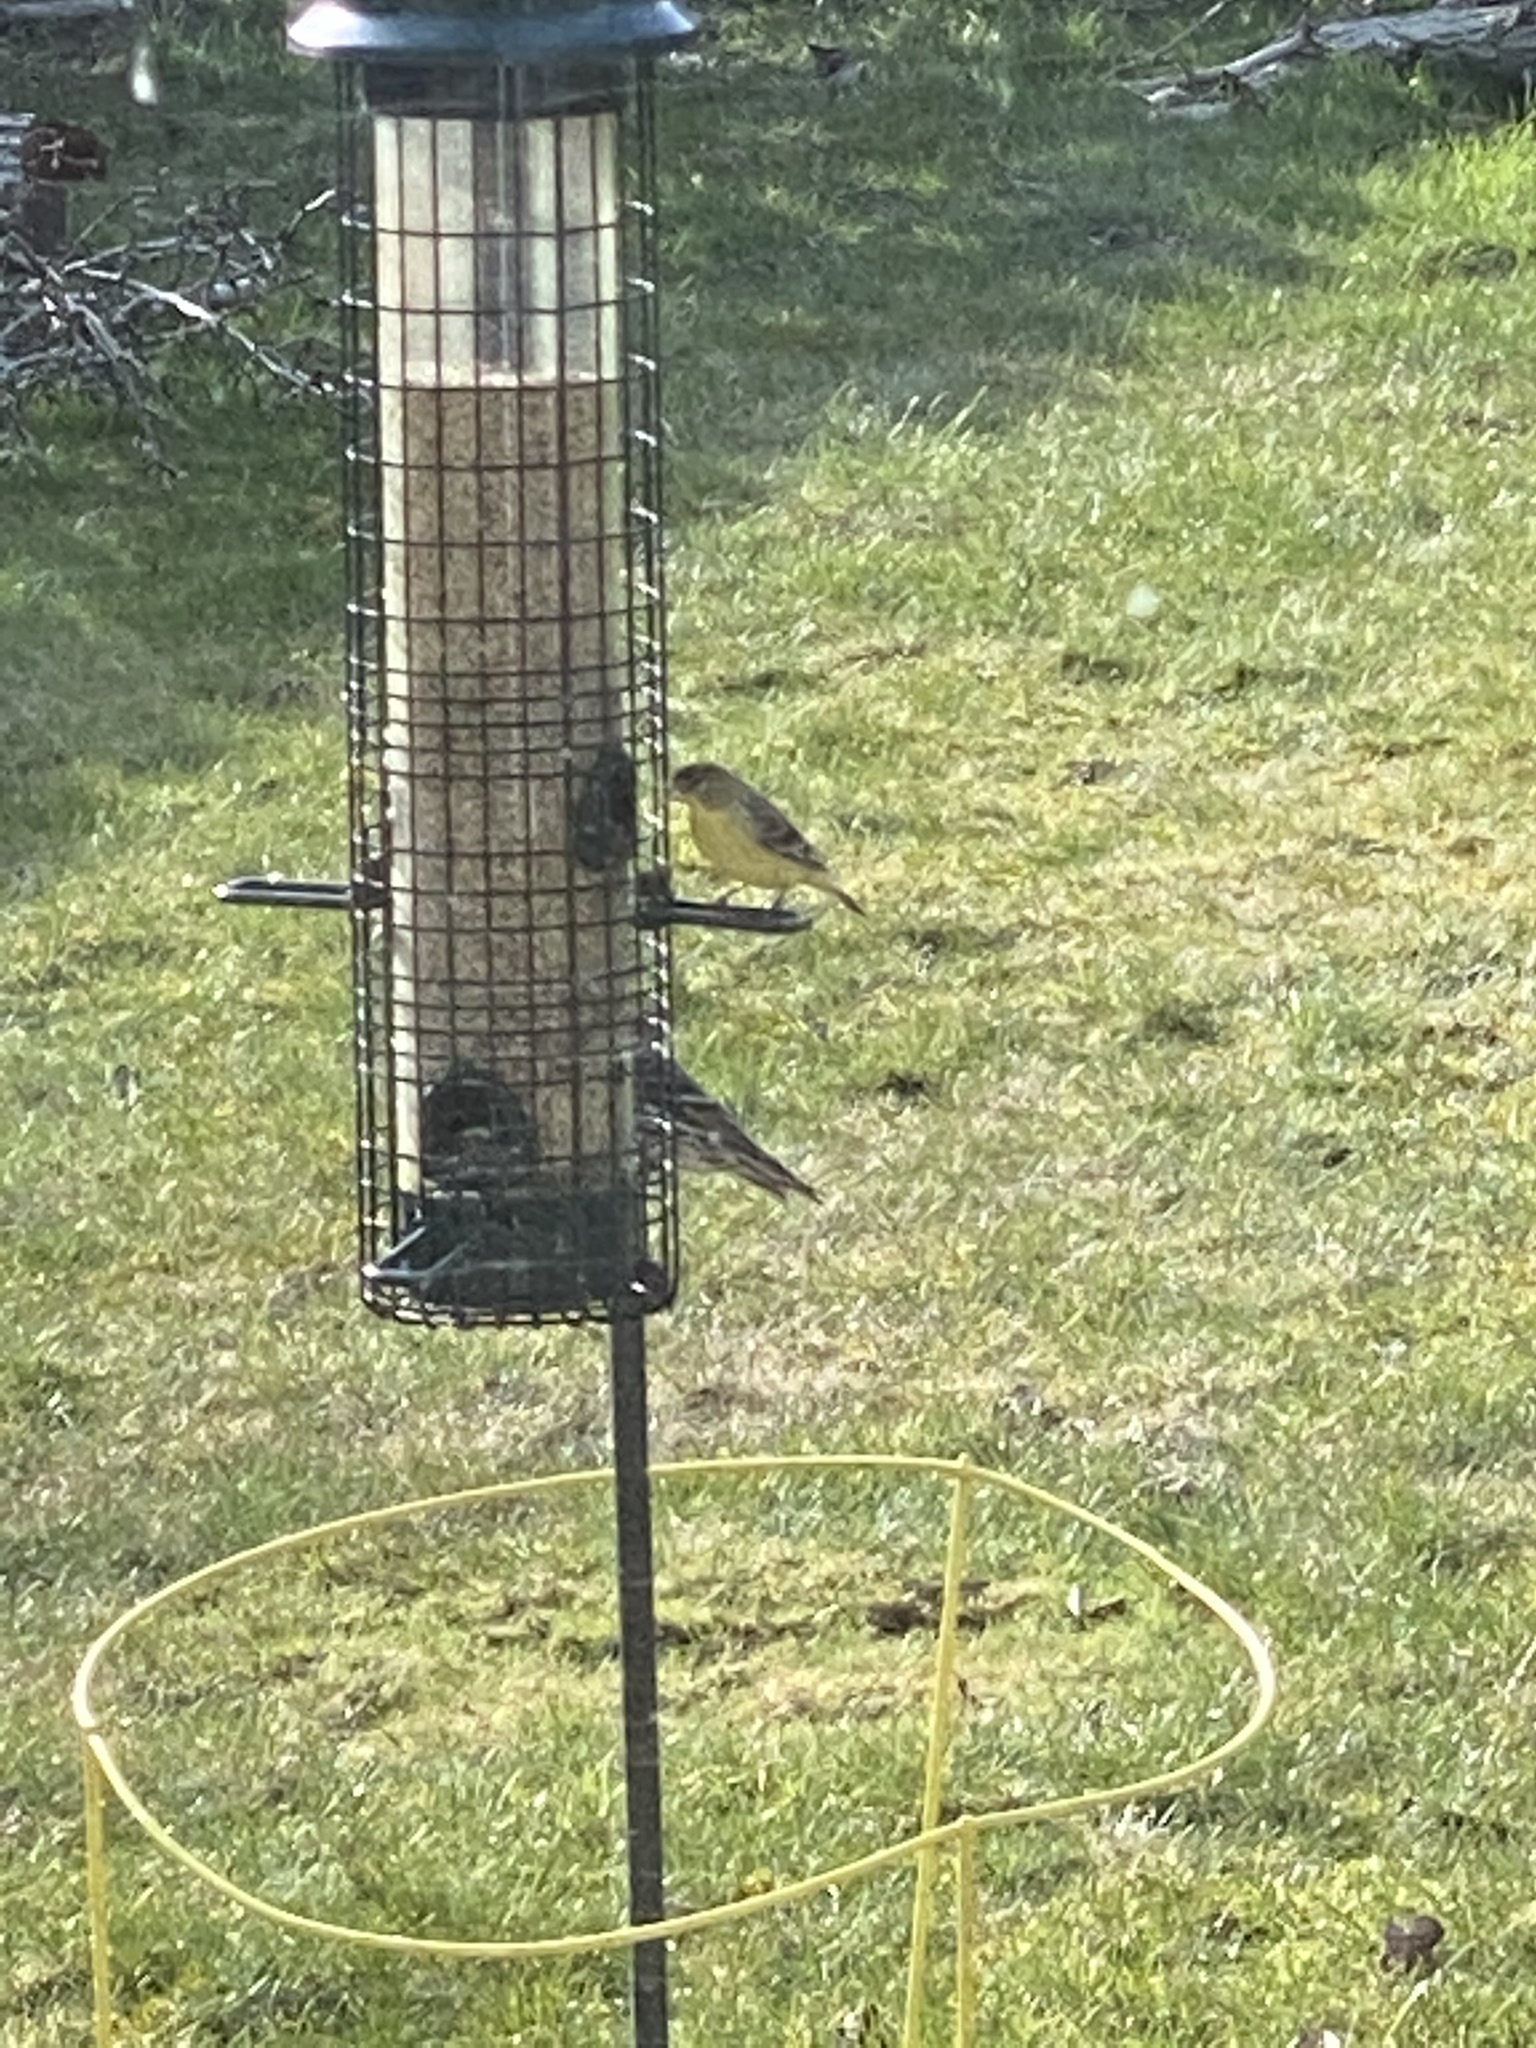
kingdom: Animalia
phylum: Chordata
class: Aves
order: Passeriformes
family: Fringillidae
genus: Spinus
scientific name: Spinus psaltria
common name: Lesser goldfinch
